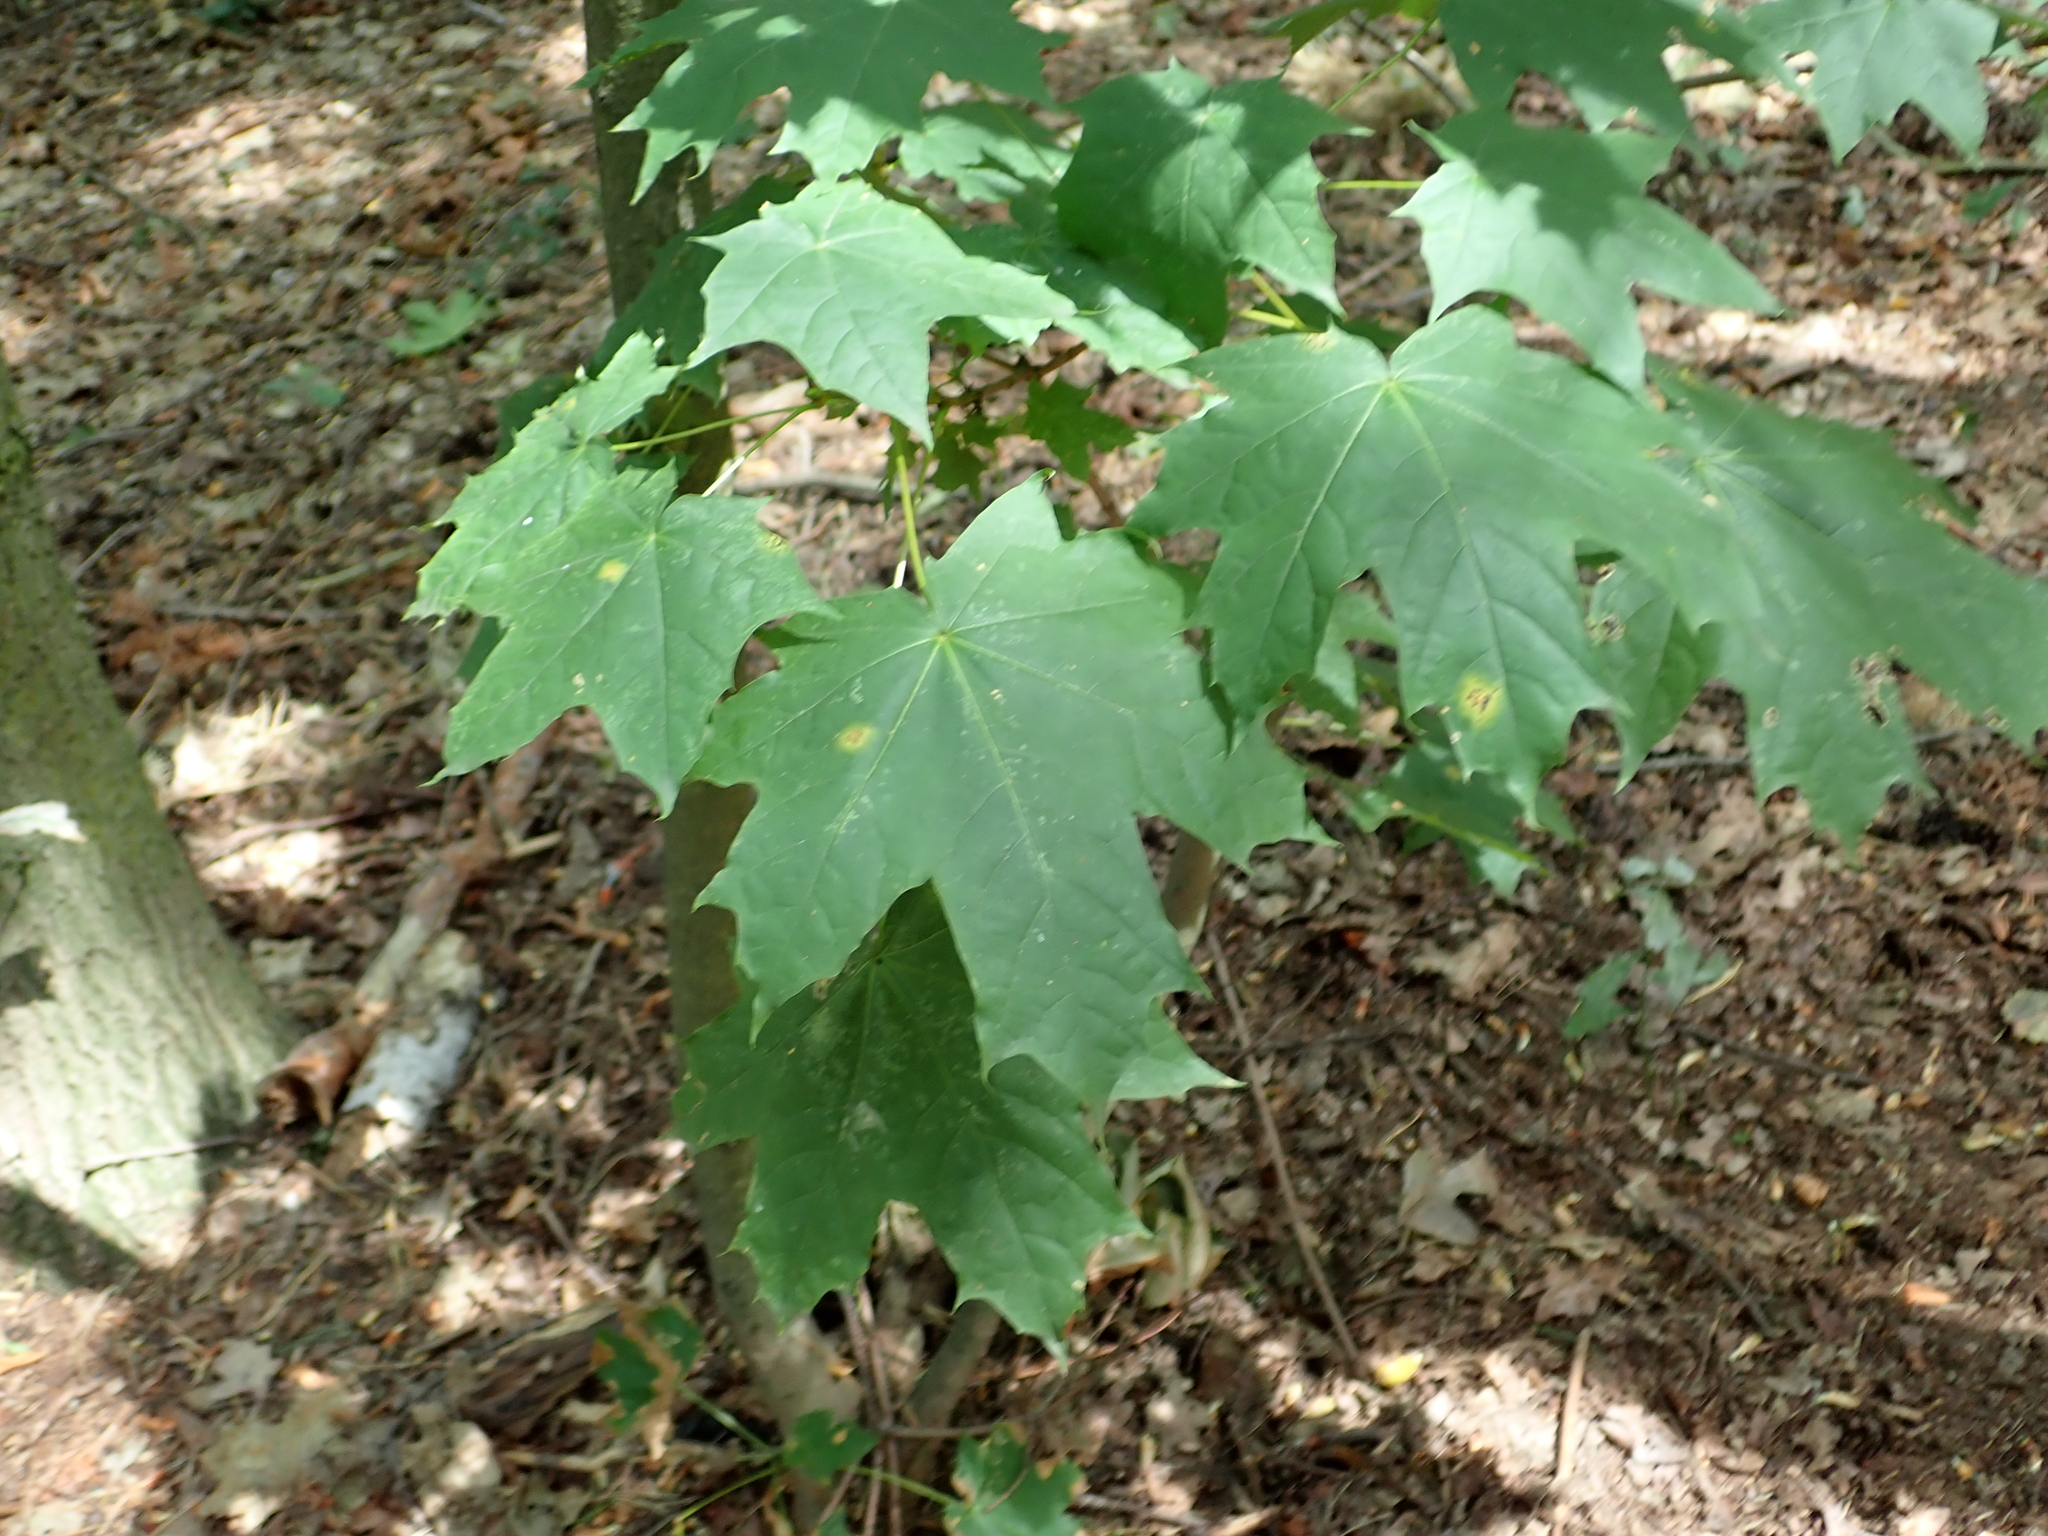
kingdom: Plantae
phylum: Tracheophyta
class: Magnoliopsida
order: Sapindales
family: Sapindaceae
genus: Acer
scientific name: Acer platanoides
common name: Norway maple
